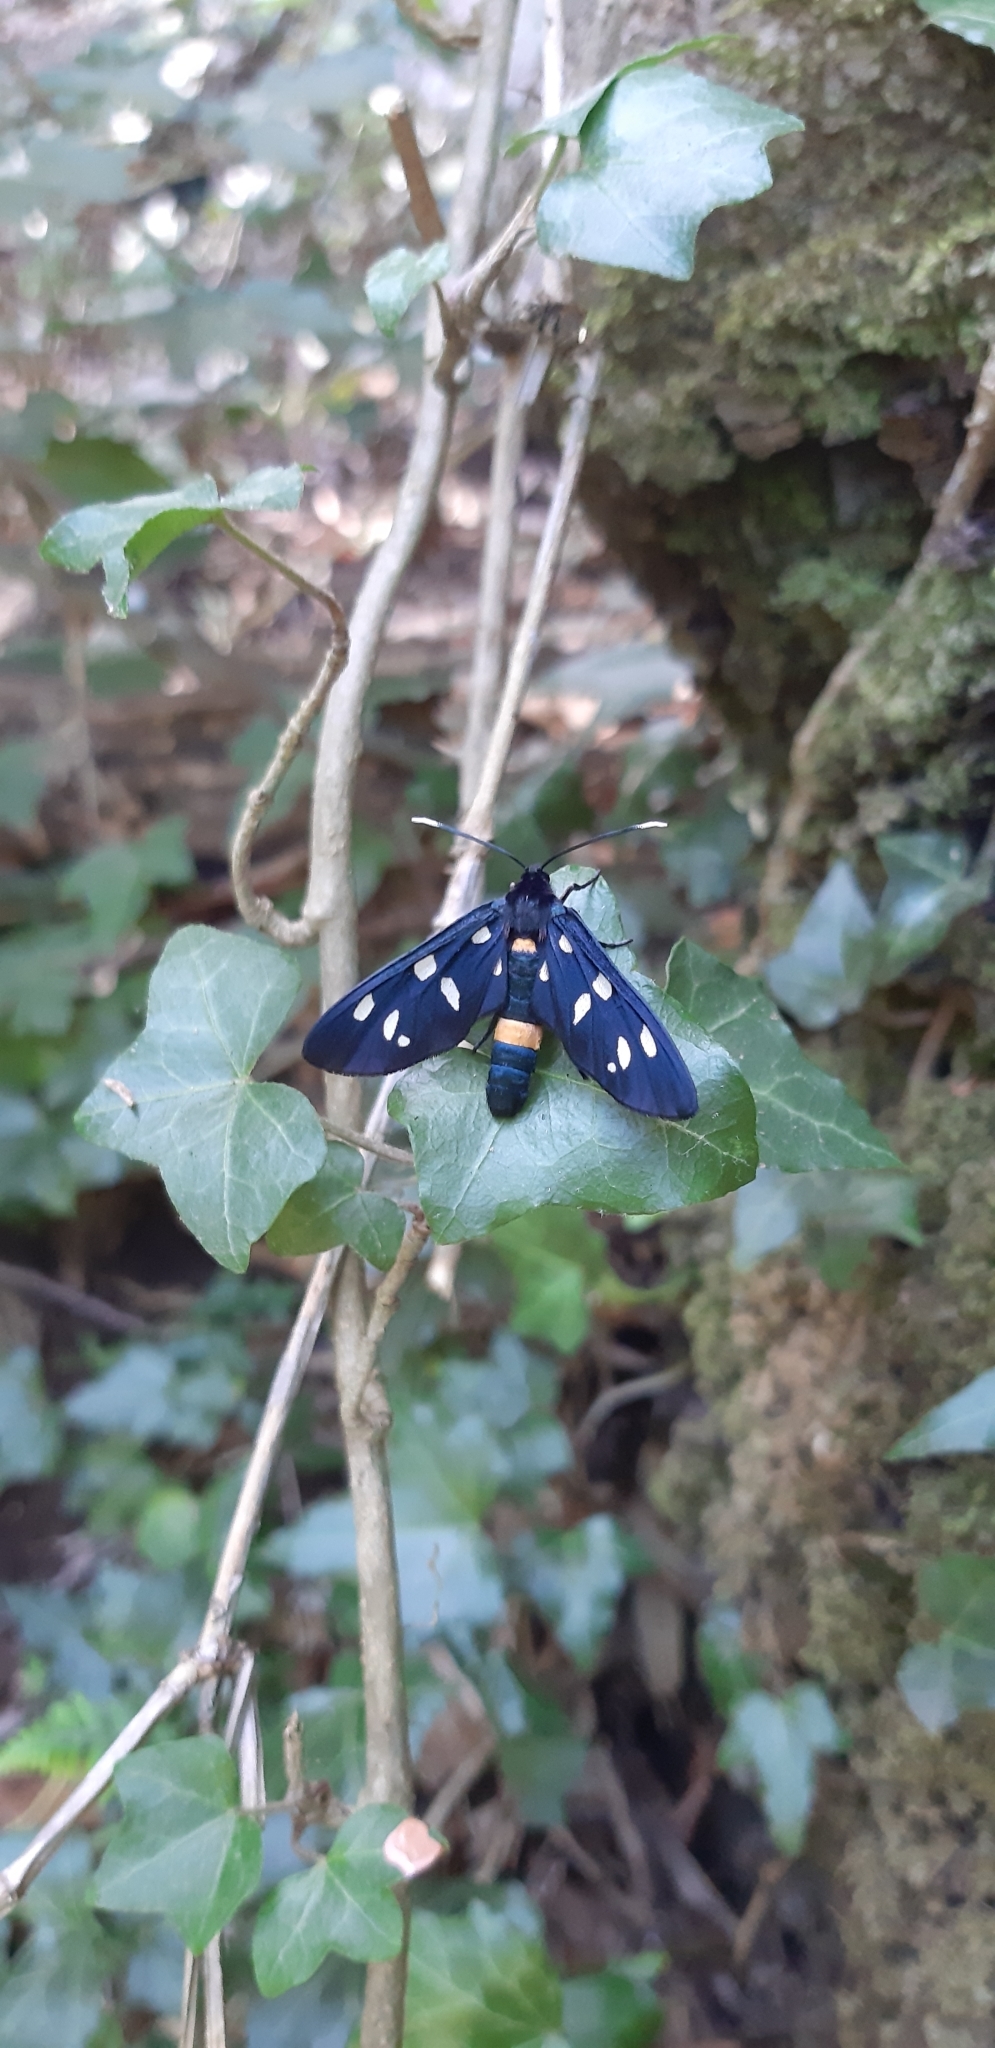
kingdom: Animalia
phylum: Arthropoda
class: Insecta
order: Lepidoptera
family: Erebidae
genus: Amata
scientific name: Amata phegea
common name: Nine-spotted
